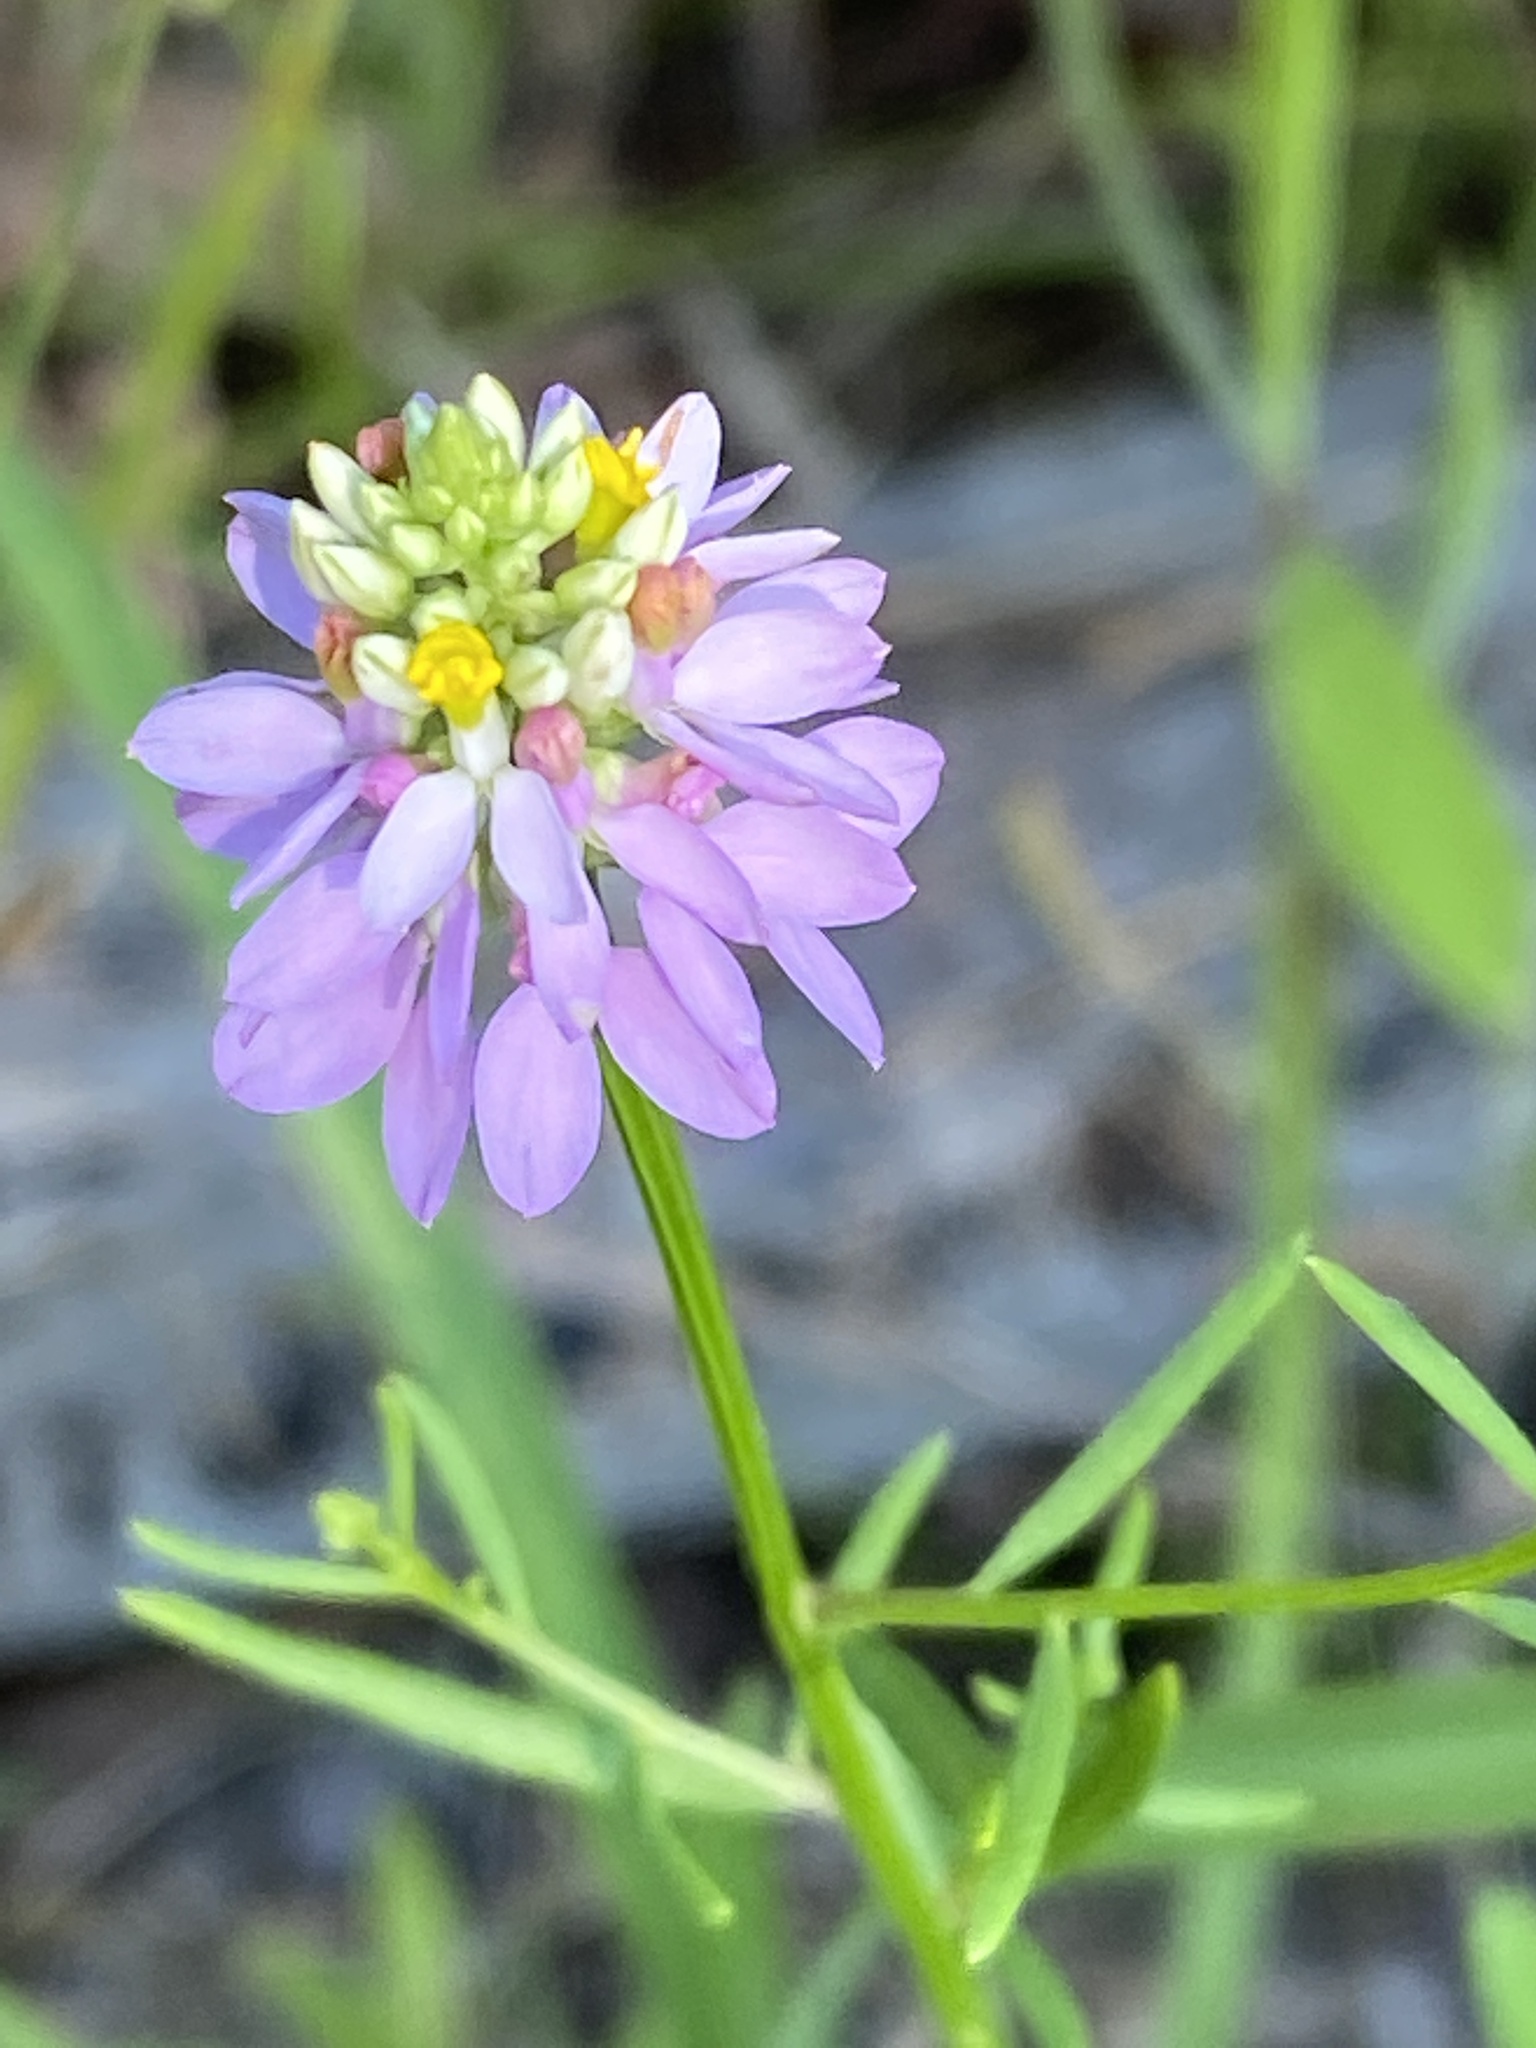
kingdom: Plantae
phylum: Tracheophyta
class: Magnoliopsida
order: Fabales
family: Polygalaceae
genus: Polygala
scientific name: Polygala curtissii
